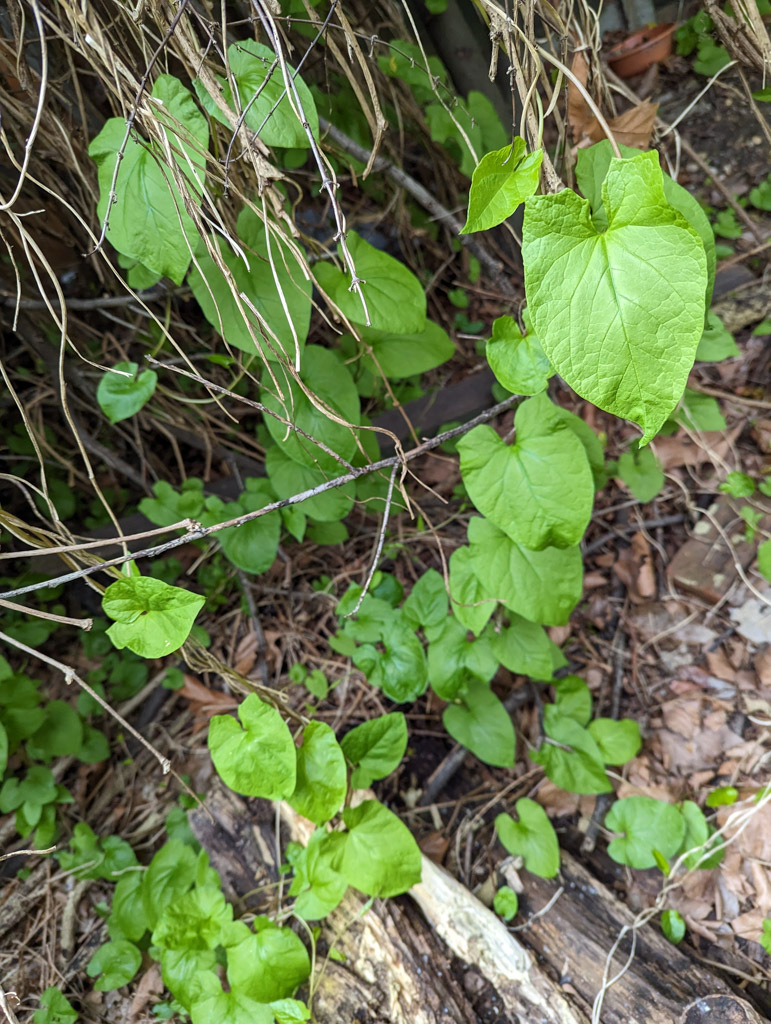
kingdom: Plantae
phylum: Tracheophyta
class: Magnoliopsida
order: Solanales
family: Convolvulaceae
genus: Calystegia
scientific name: Calystegia silvatica
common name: Large bindweed
